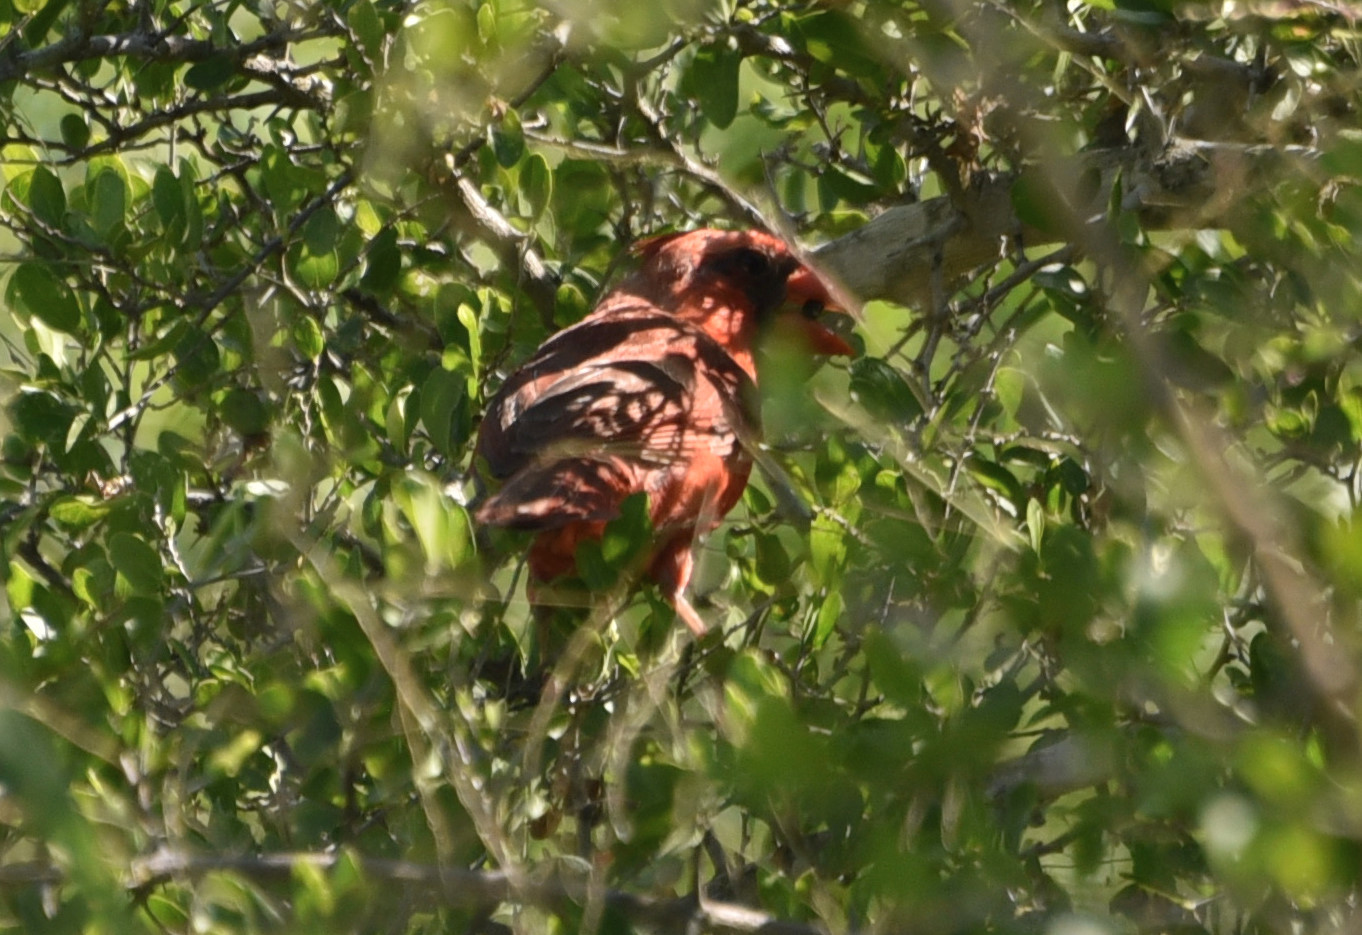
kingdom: Animalia
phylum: Chordata
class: Aves
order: Passeriformes
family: Cardinalidae
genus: Cardinalis
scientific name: Cardinalis cardinalis
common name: Northern cardinal
